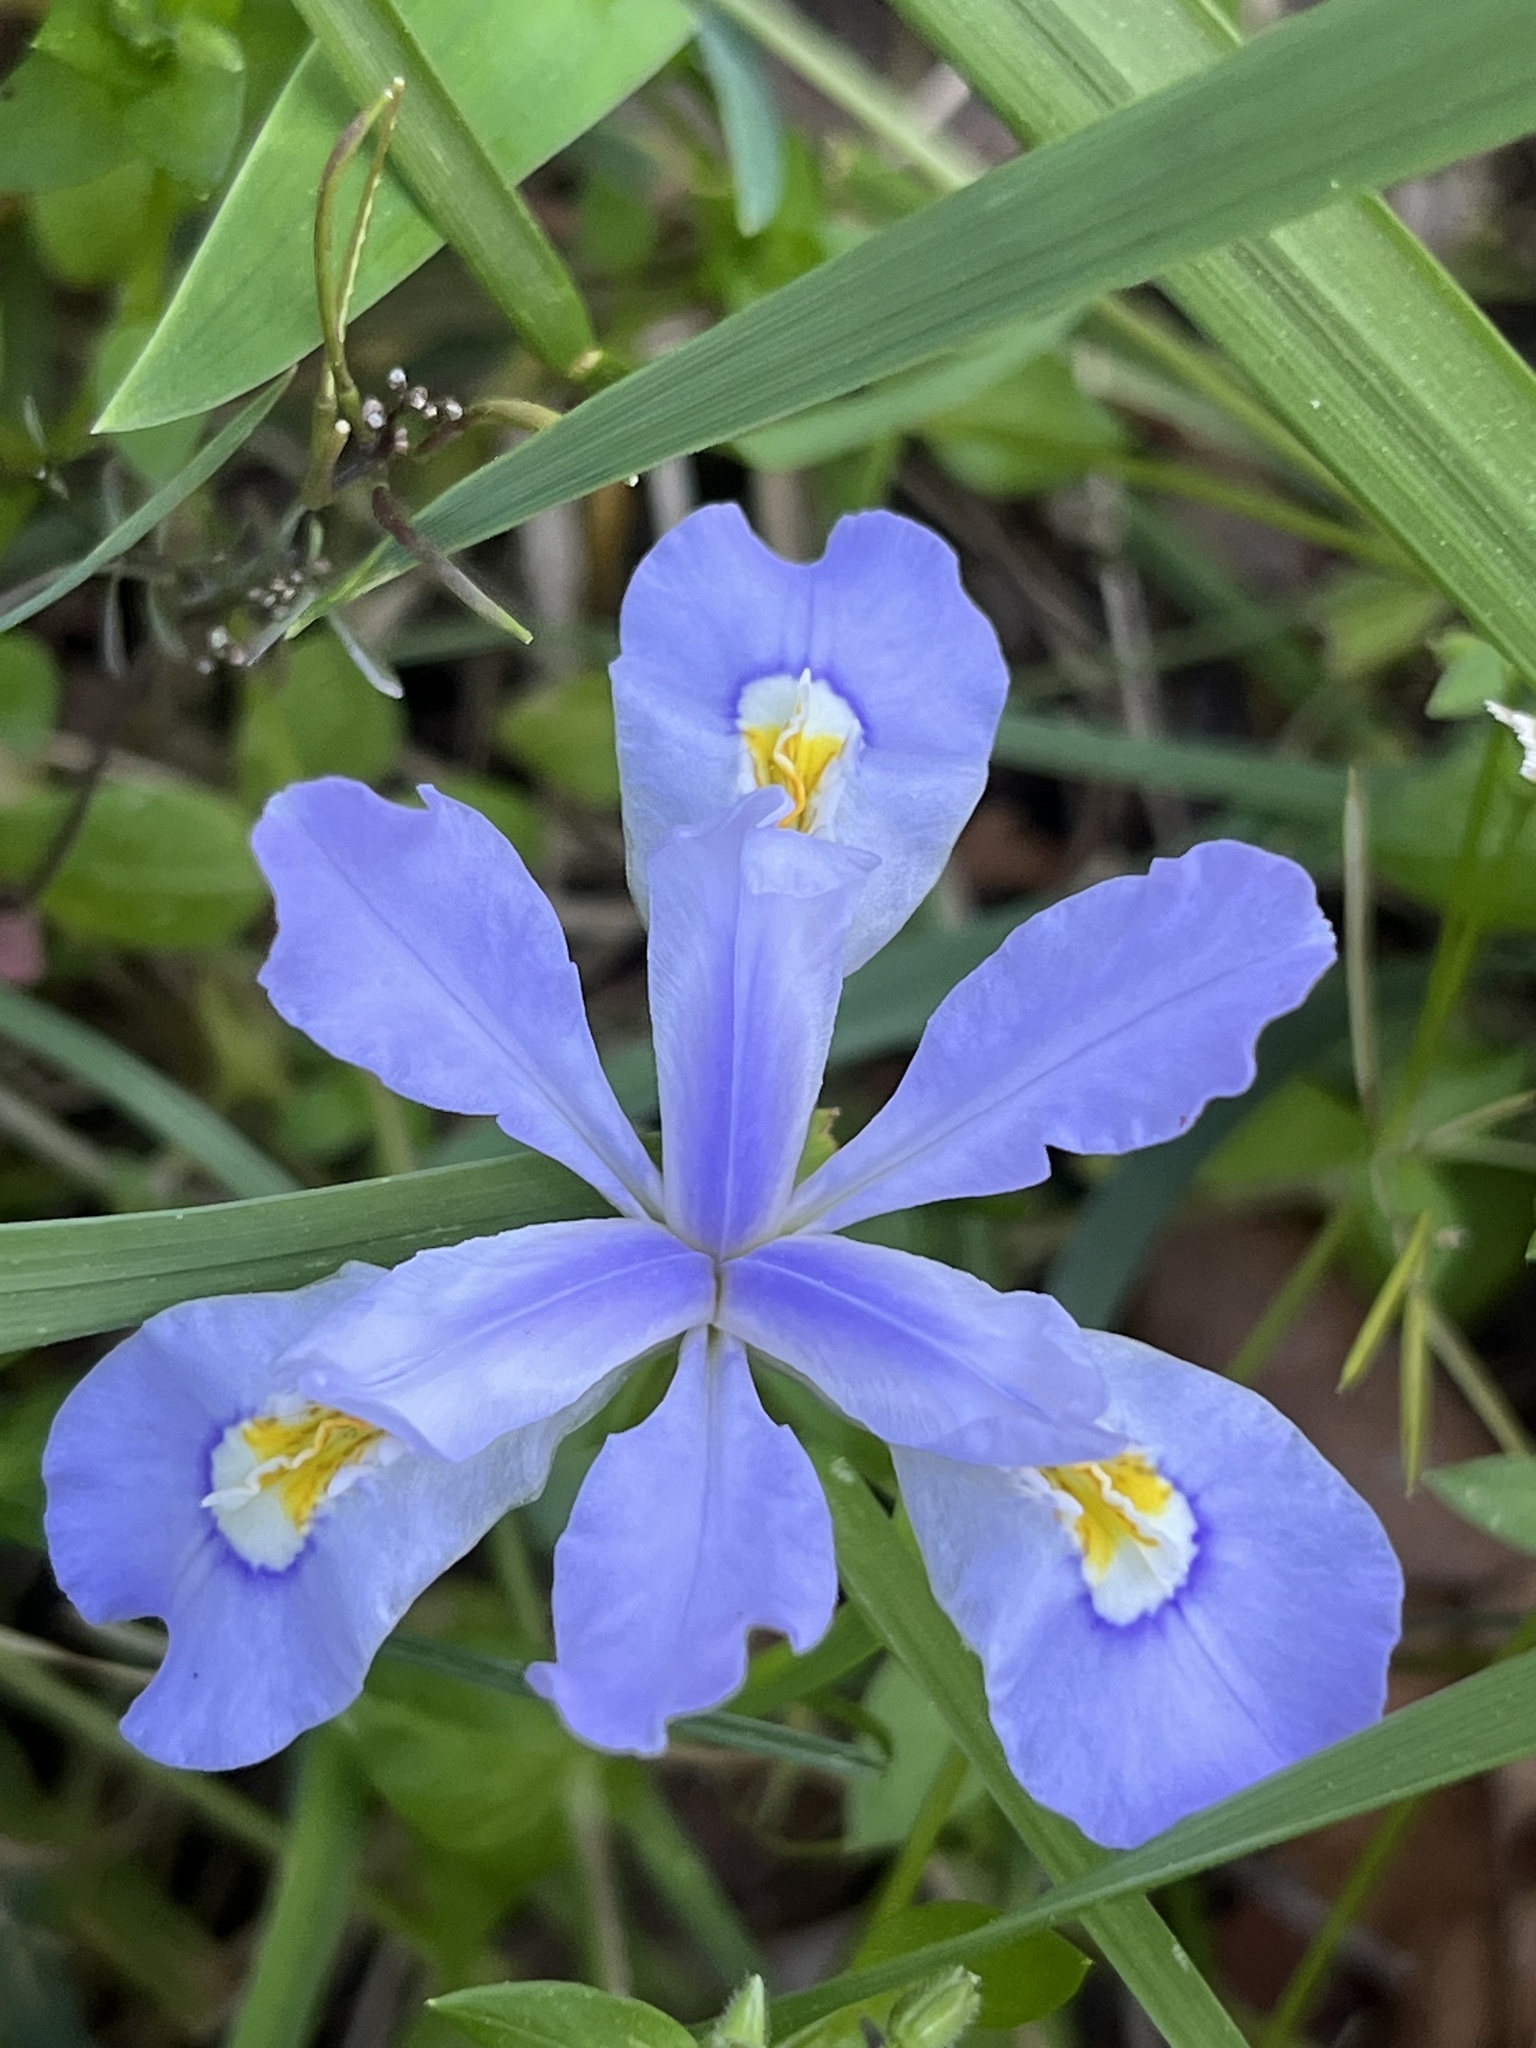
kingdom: Plantae
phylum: Tracheophyta
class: Liliopsida
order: Asparagales
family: Iridaceae
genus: Iris
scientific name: Iris cristata
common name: Crested iris
